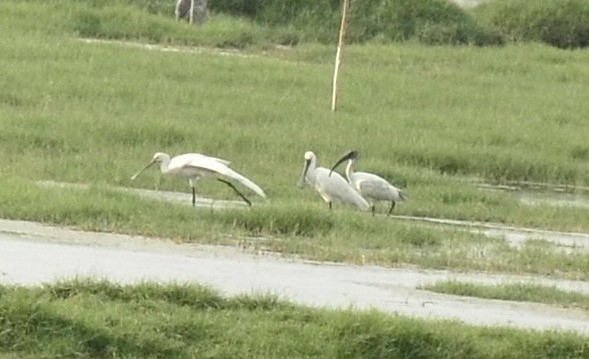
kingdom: Animalia
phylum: Chordata
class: Aves
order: Pelecaniformes
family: Threskiornithidae
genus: Platalea
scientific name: Platalea leucorodia
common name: Eurasian spoonbill
